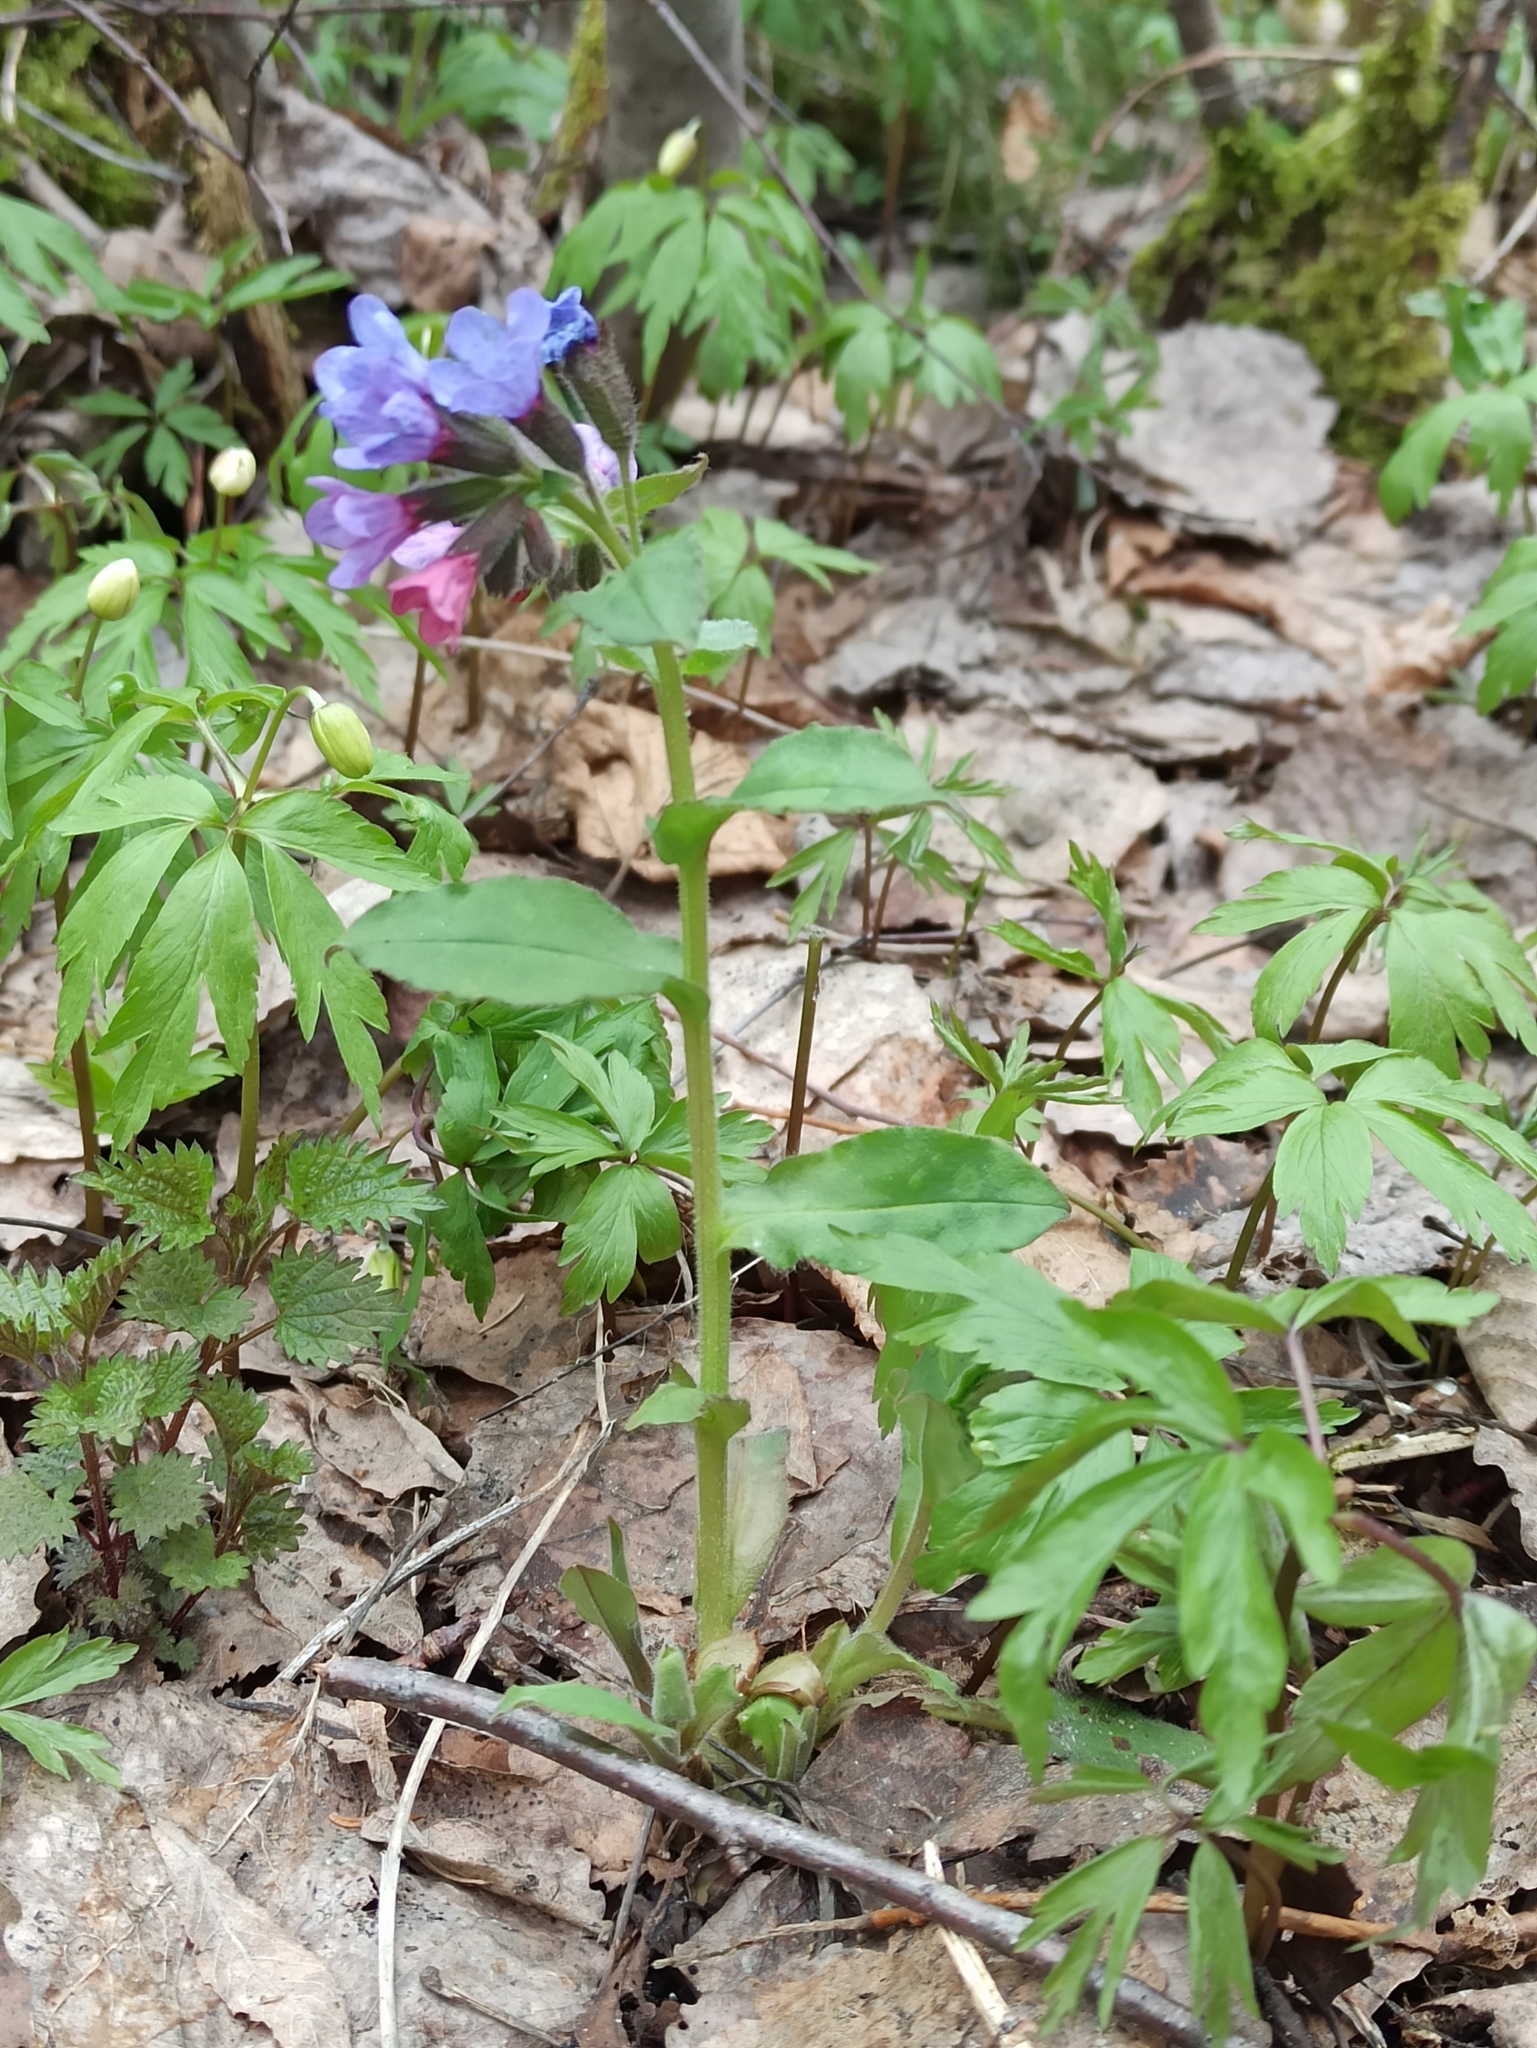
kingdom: Plantae
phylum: Tracheophyta
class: Magnoliopsida
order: Boraginales
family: Boraginaceae
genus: Pulmonaria
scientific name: Pulmonaria obscura
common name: Suffolk lungwort
